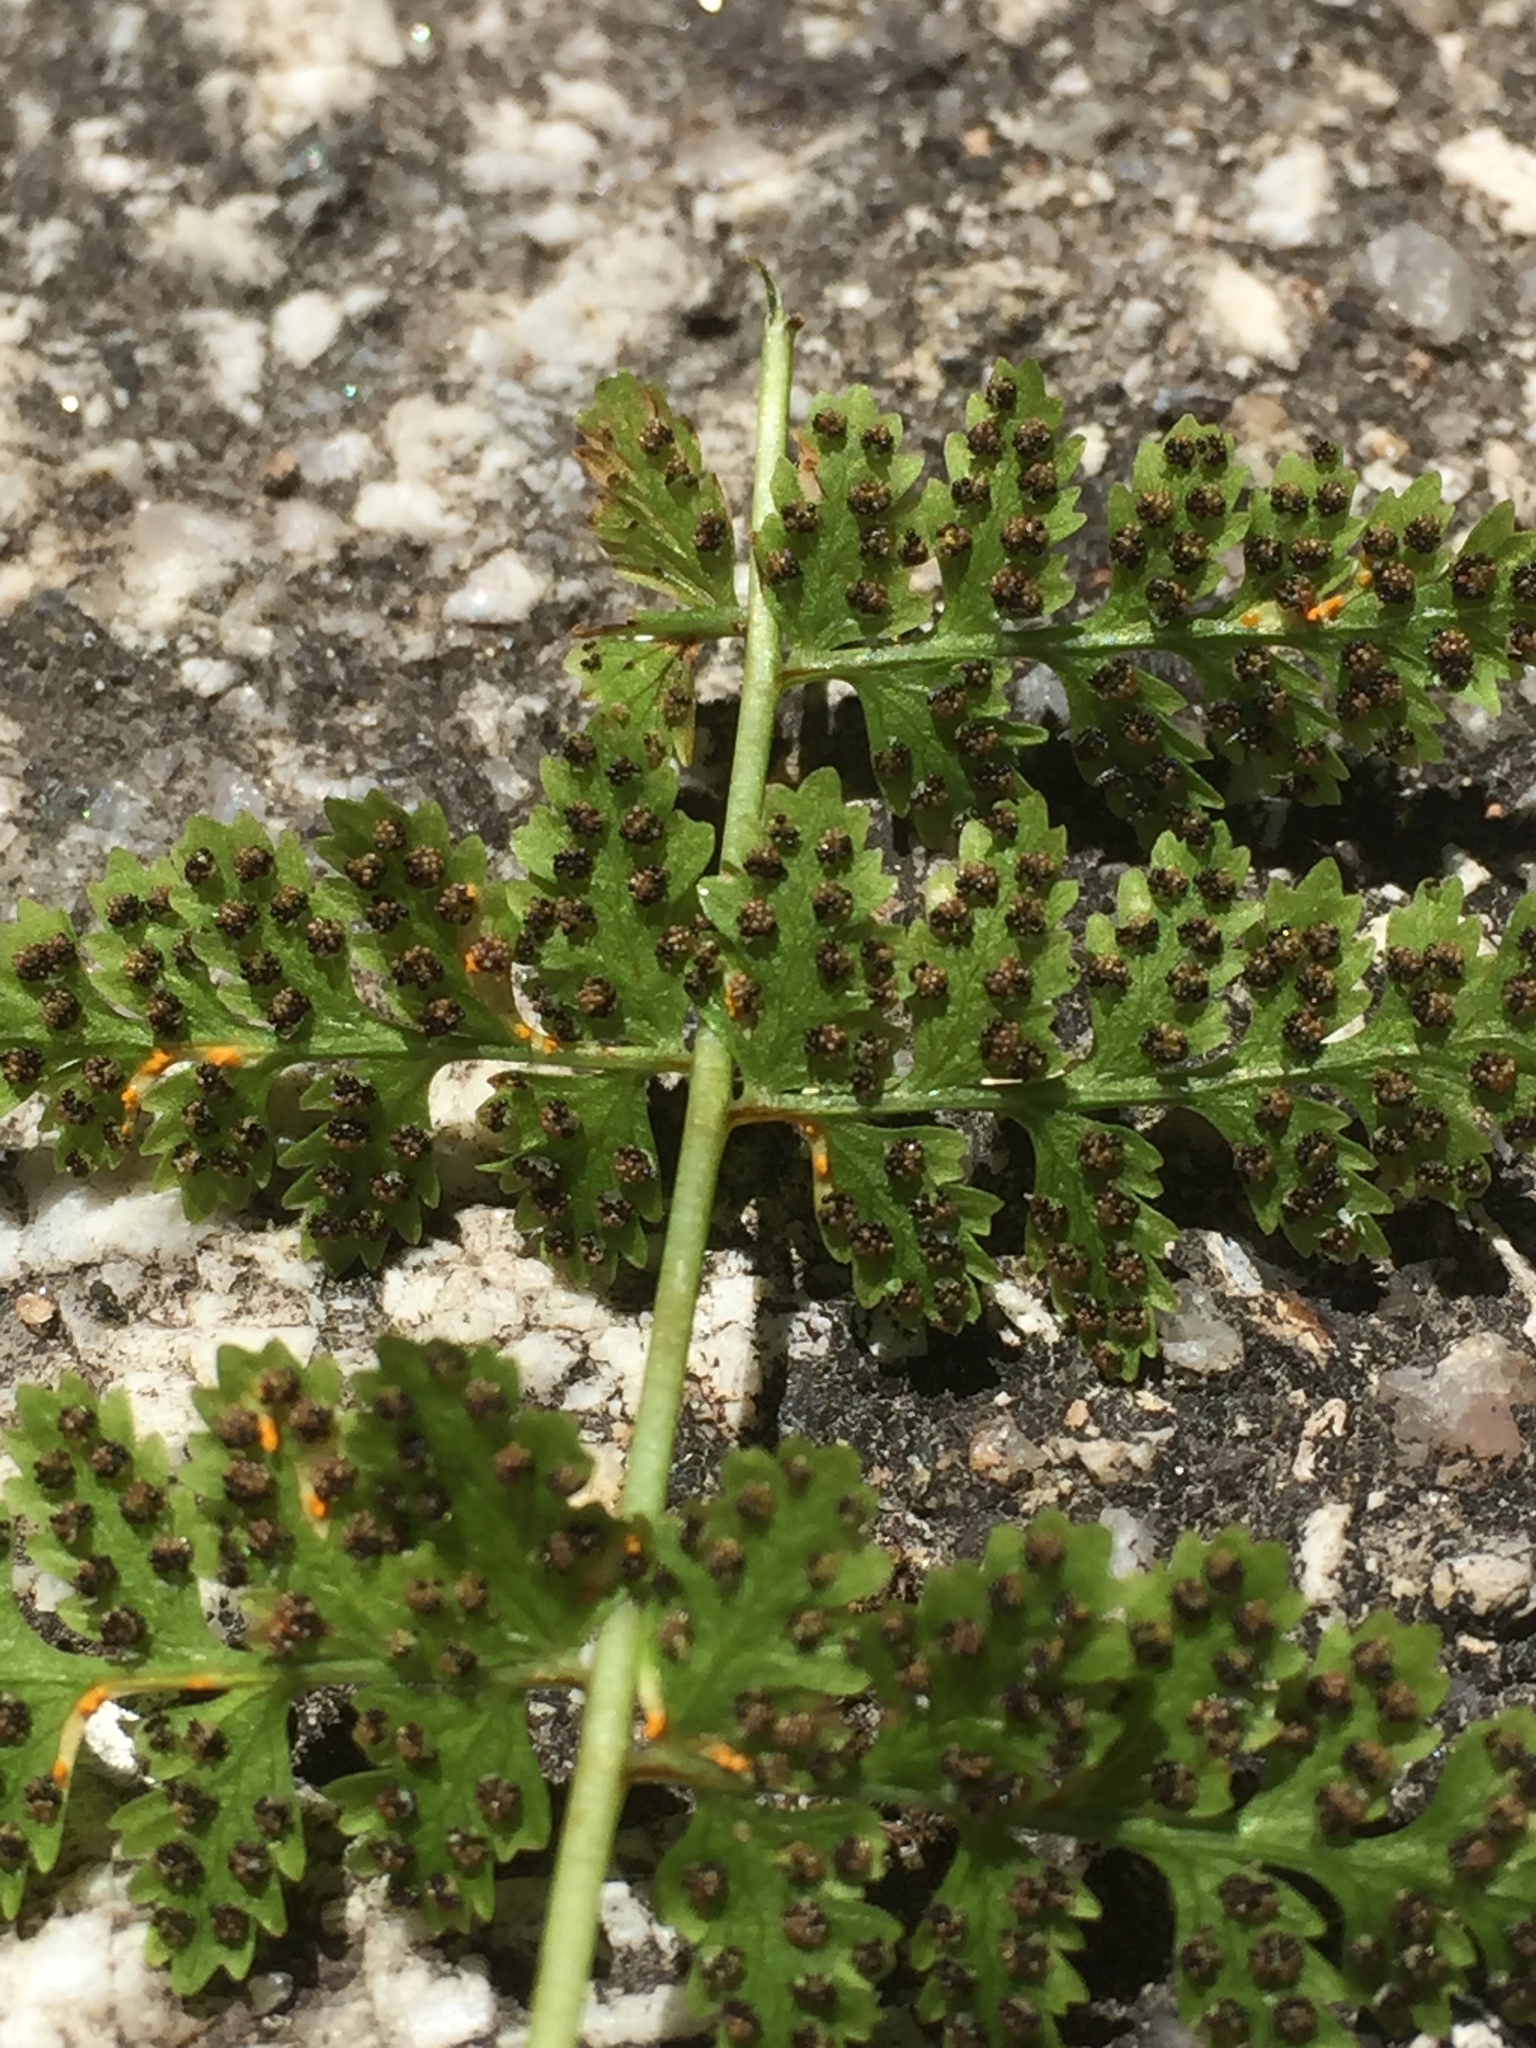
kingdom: Plantae
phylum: Tracheophyta
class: Polypodiopsida
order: Polypodiales
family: Cystopteridaceae
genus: Cystopteris
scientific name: Cystopteris fragilis
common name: Brittle bladder fern
